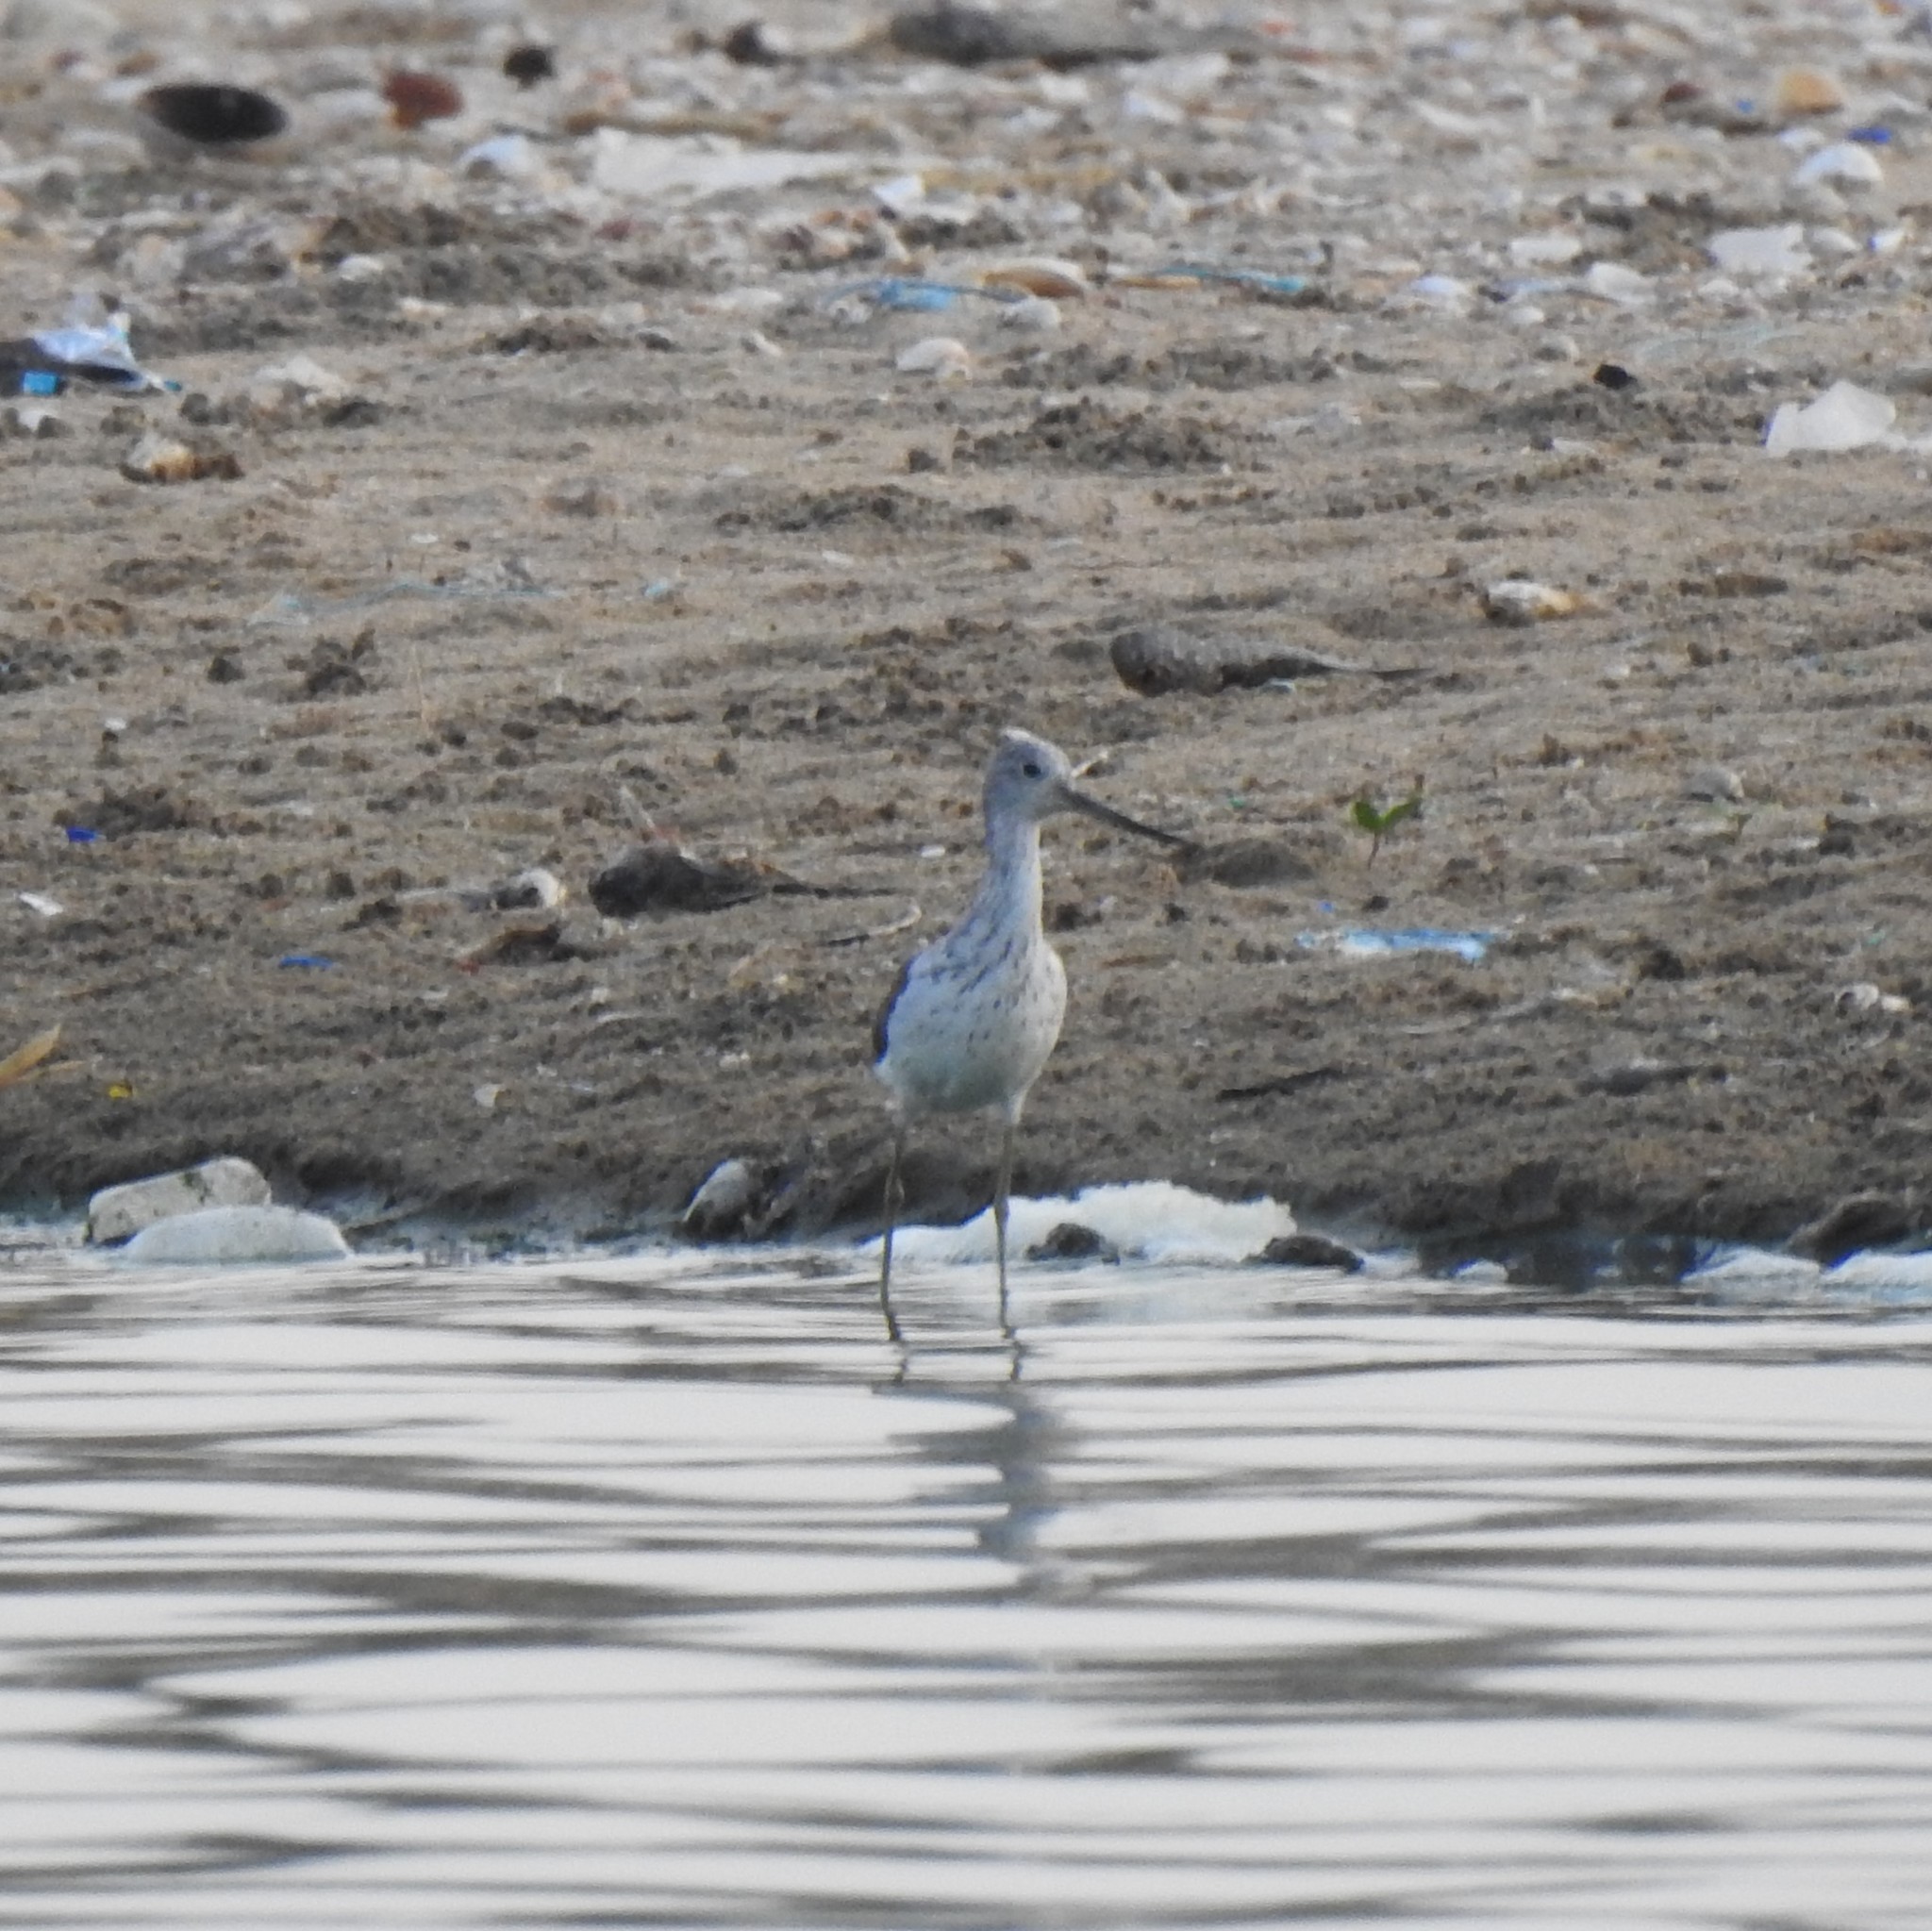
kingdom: Animalia
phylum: Chordata
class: Aves
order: Charadriiformes
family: Scolopacidae
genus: Tringa
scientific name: Tringa nebularia
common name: Common greenshank
